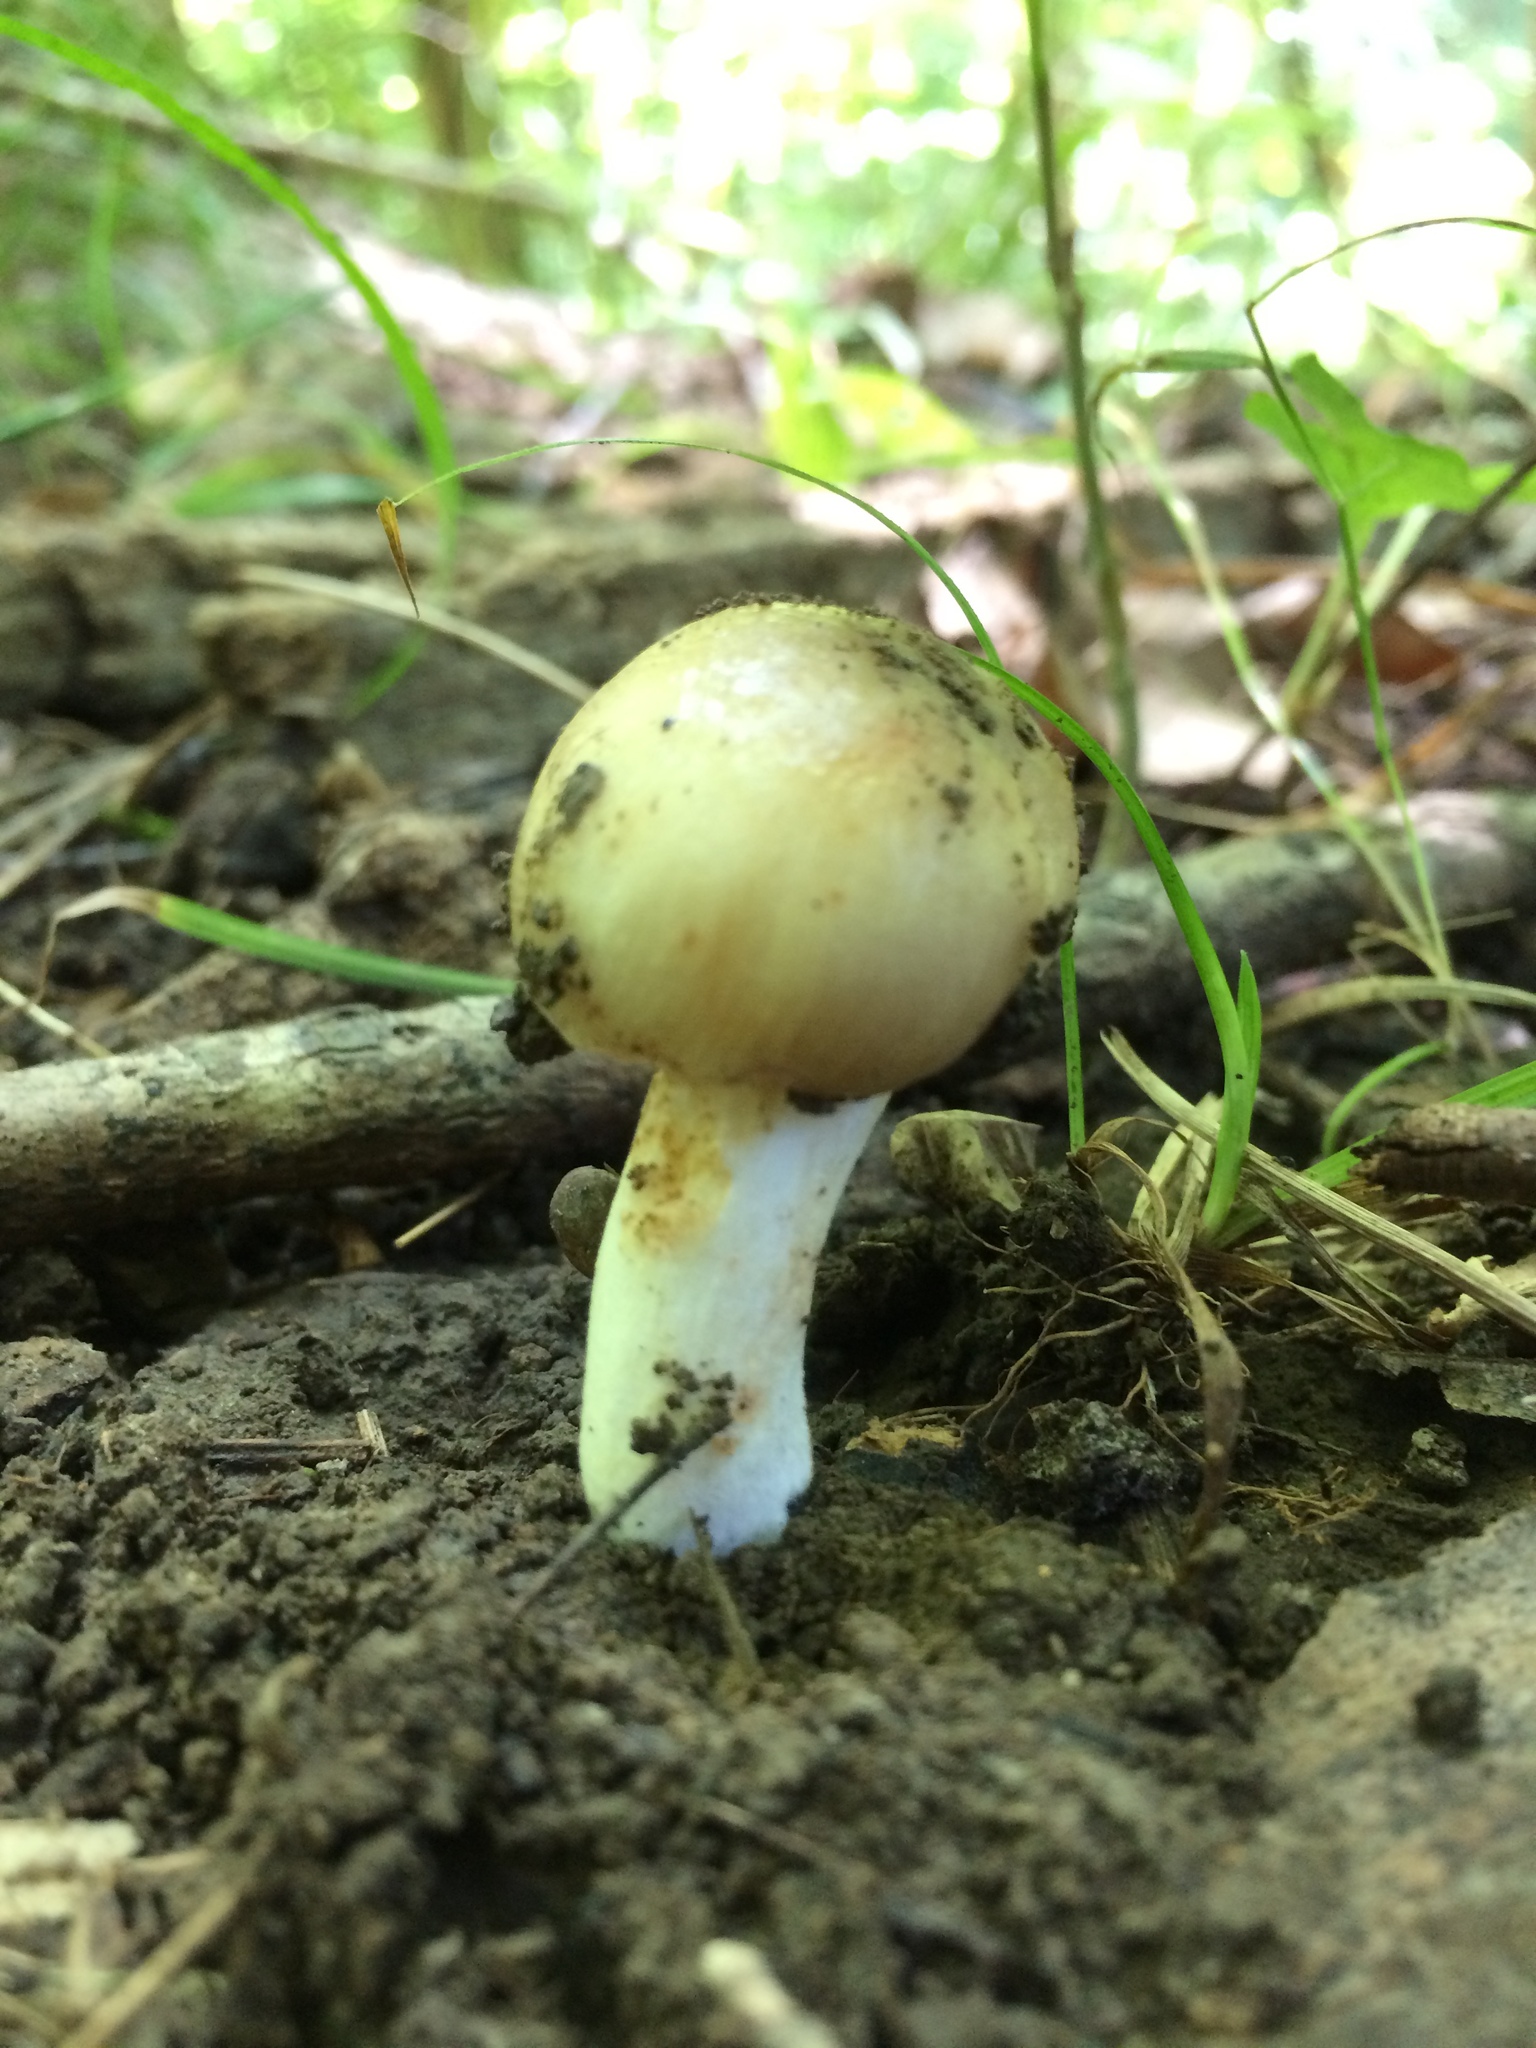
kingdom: Fungi
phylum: Basidiomycota
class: Agaricomycetes
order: Russulales
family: Russulaceae
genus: Russula
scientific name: Russula amerorecondita
